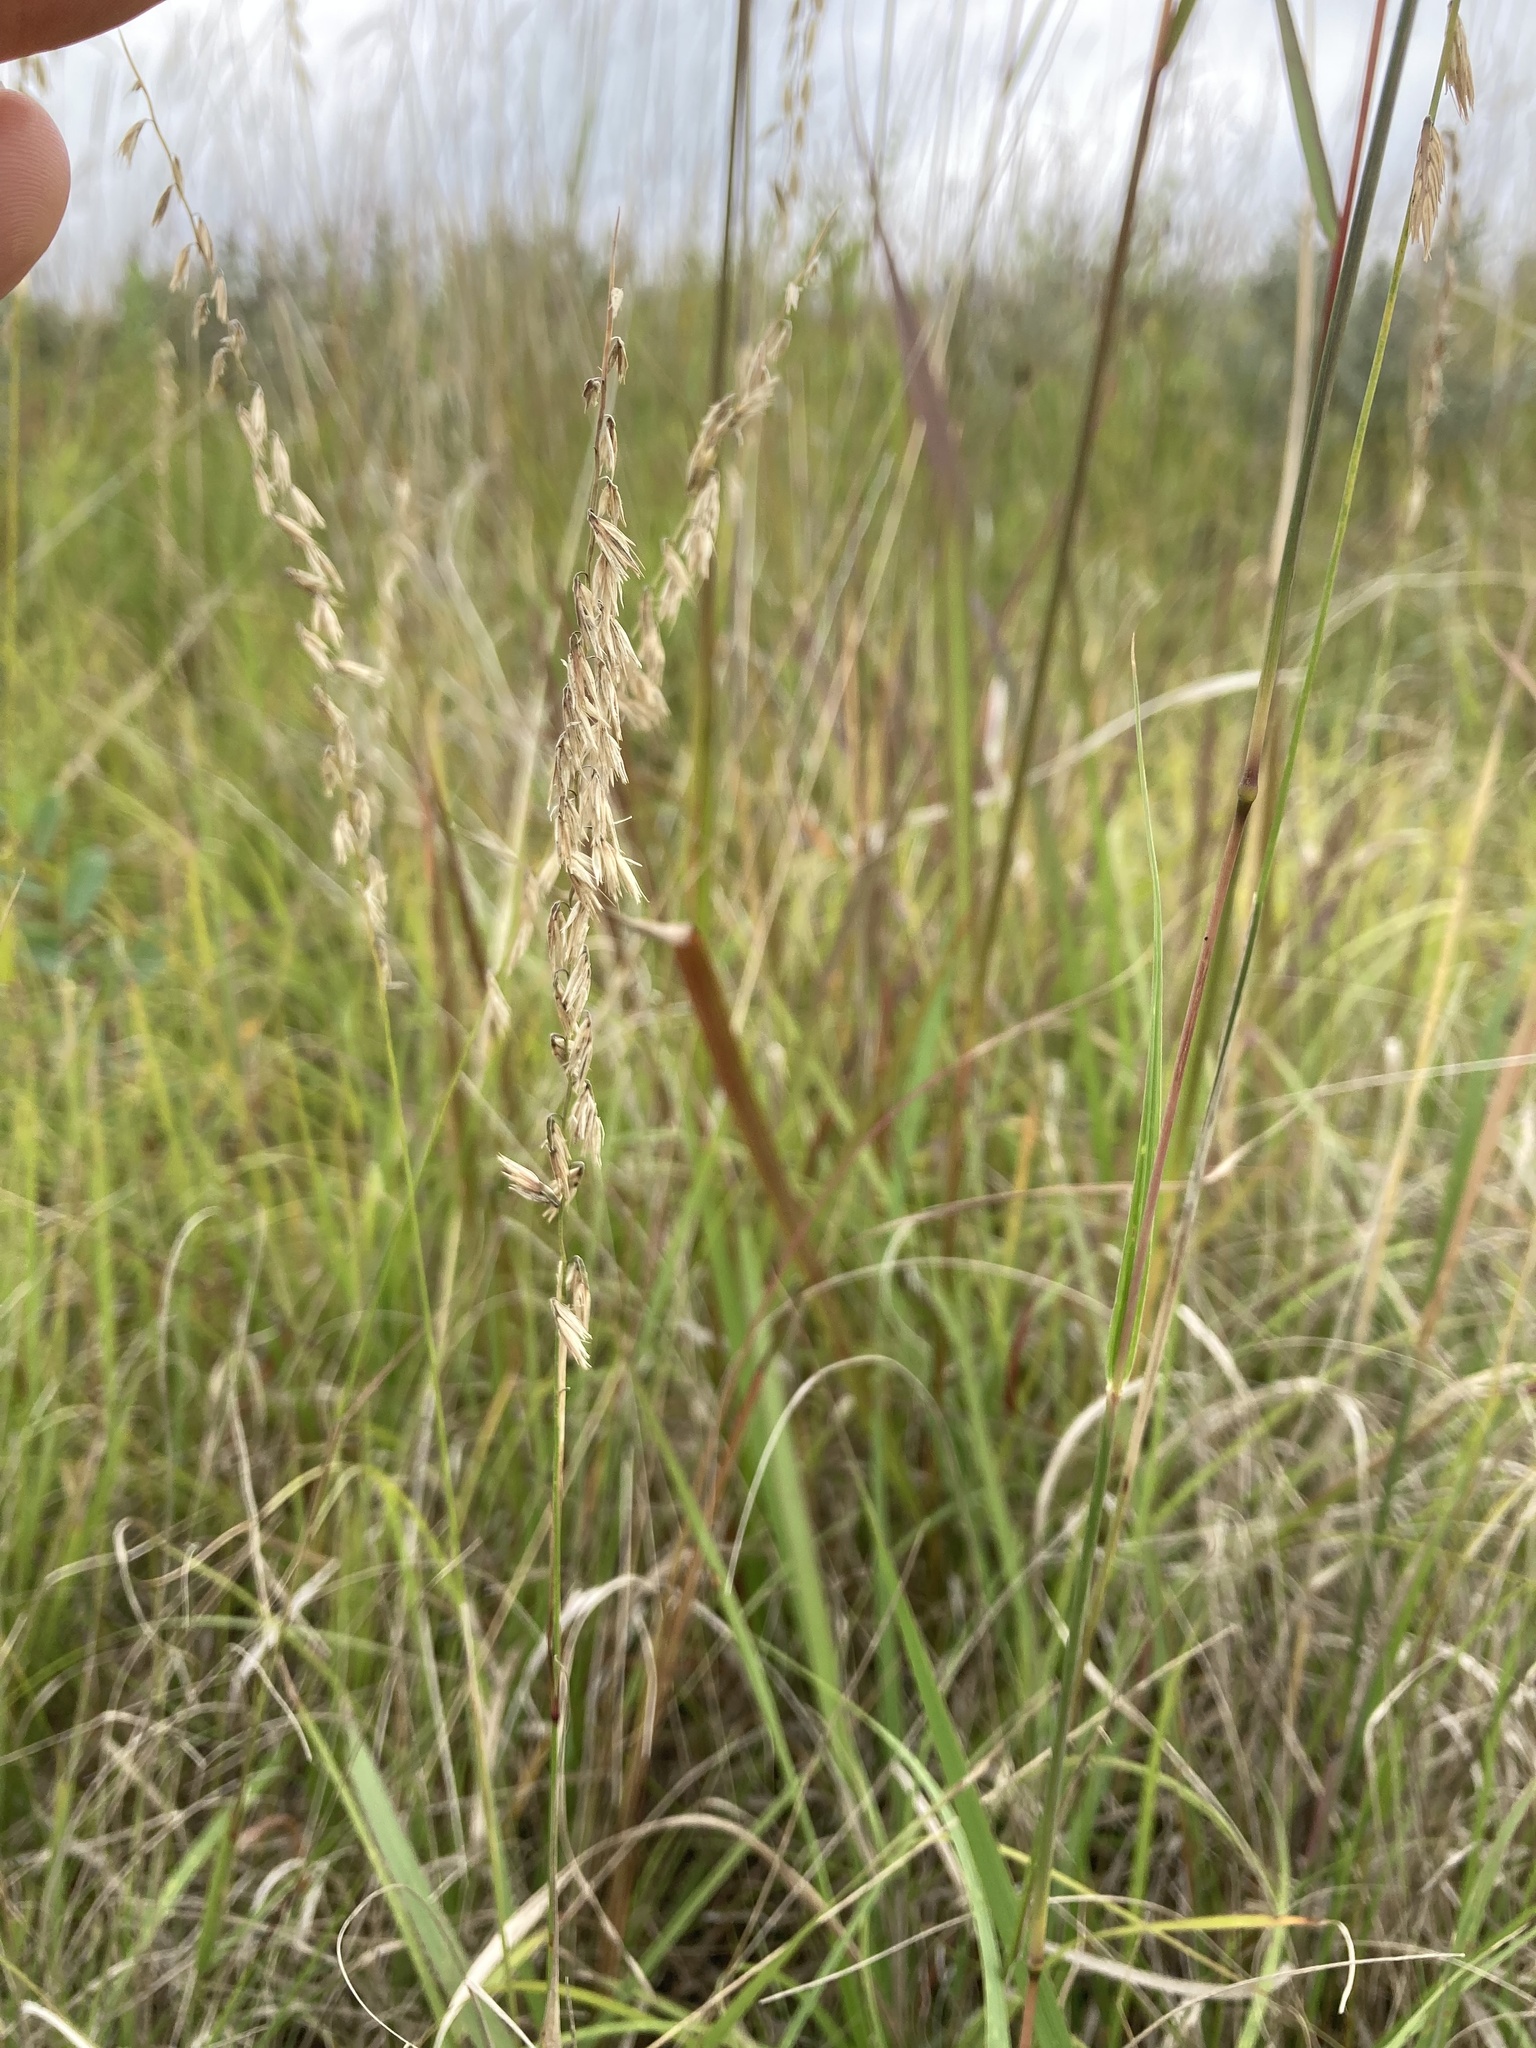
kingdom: Plantae
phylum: Tracheophyta
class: Liliopsida
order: Poales
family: Poaceae
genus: Bouteloua
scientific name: Bouteloua curtipendula
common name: Side-oats grama
